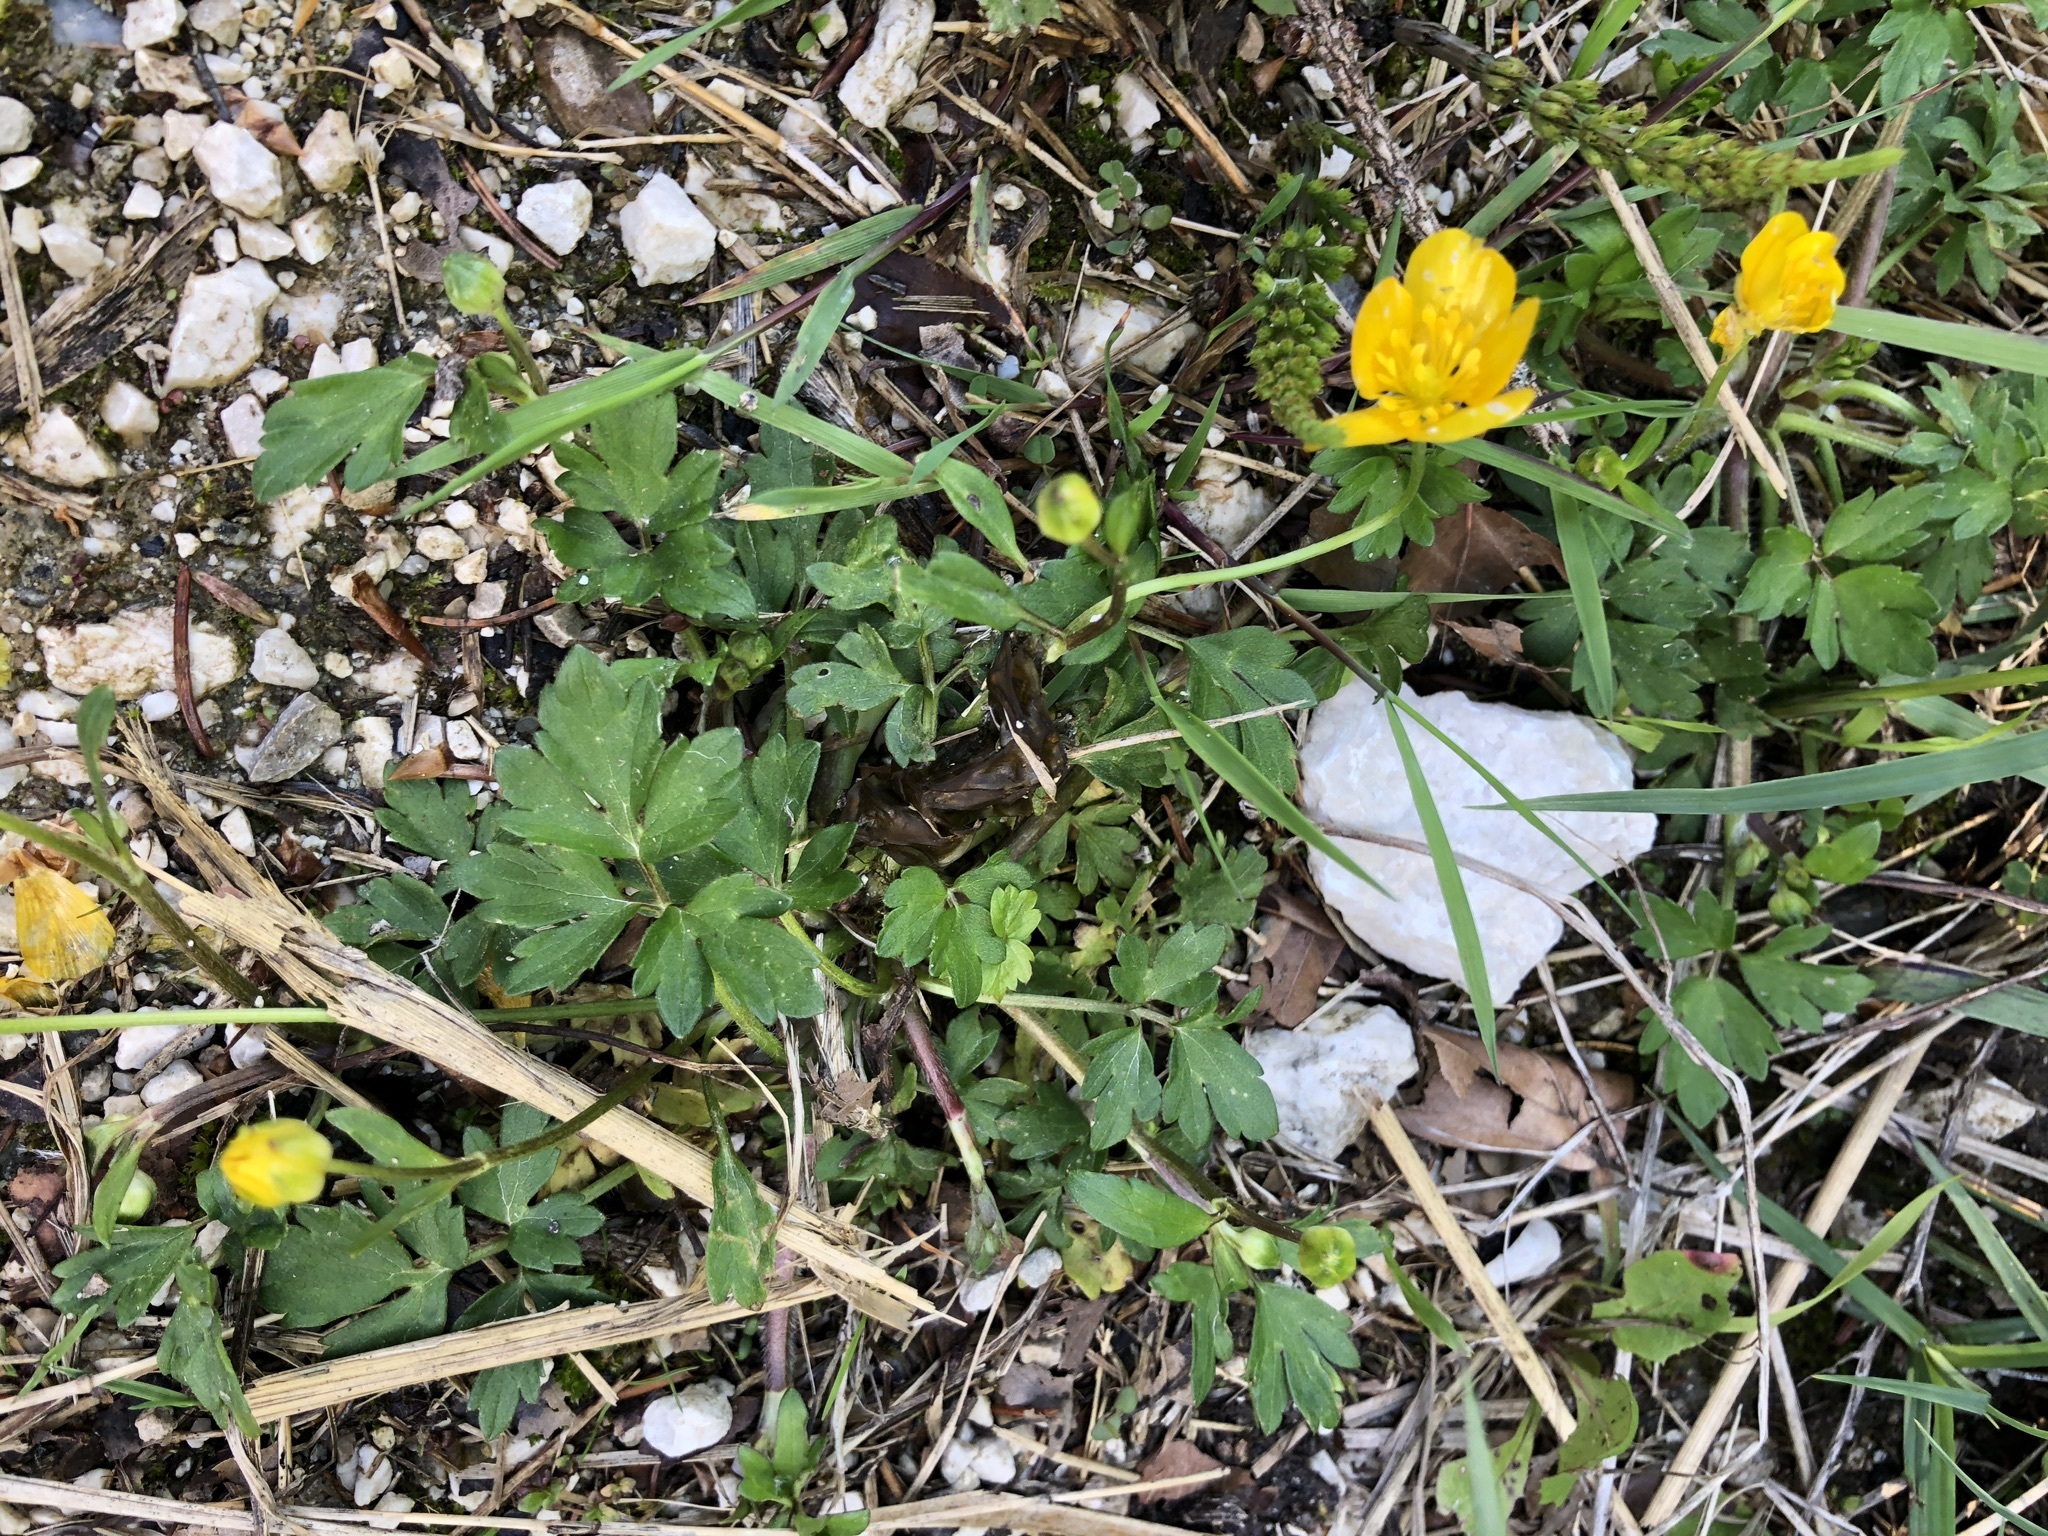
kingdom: Plantae
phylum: Tracheophyta
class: Magnoliopsida
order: Ranunculales
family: Ranunculaceae
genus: Ranunculus
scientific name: Ranunculus repens
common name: Creeping buttercup
